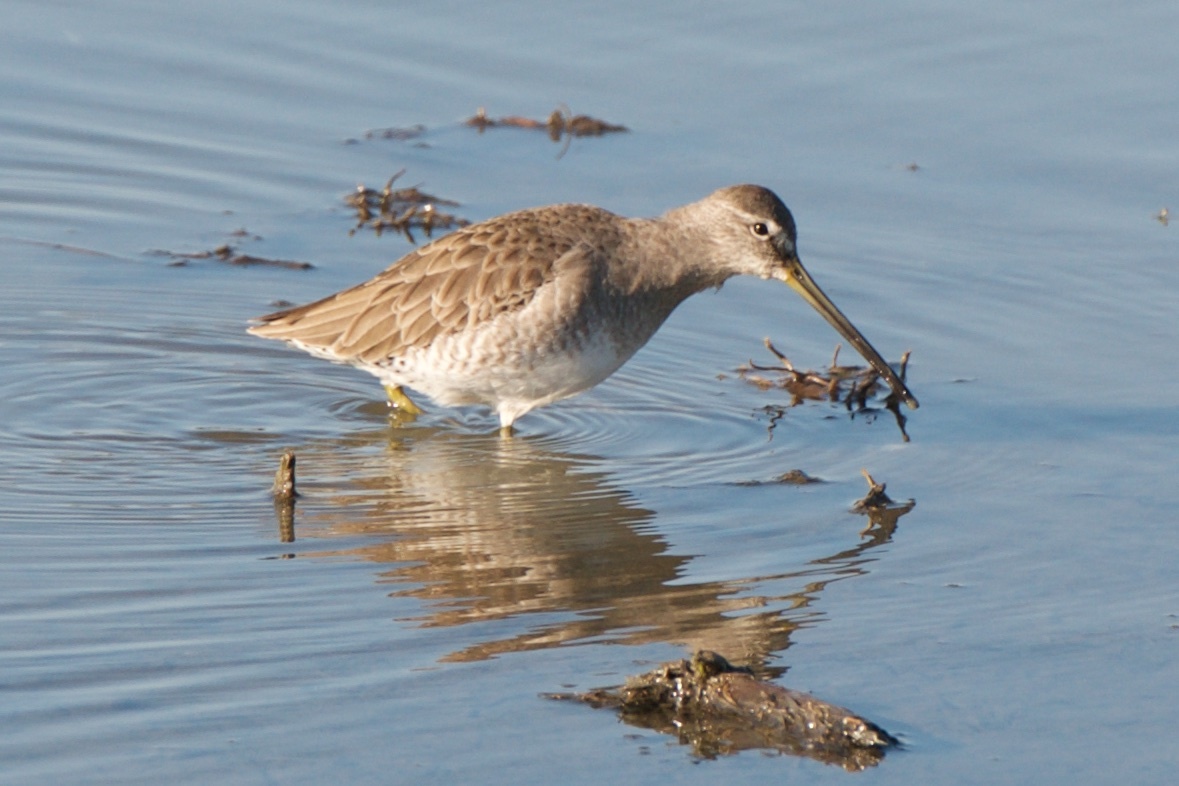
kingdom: Animalia
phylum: Chordata
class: Aves
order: Charadriiformes
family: Scolopacidae
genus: Limnodromus
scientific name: Limnodromus scolopaceus
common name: Long-billed dowitcher
